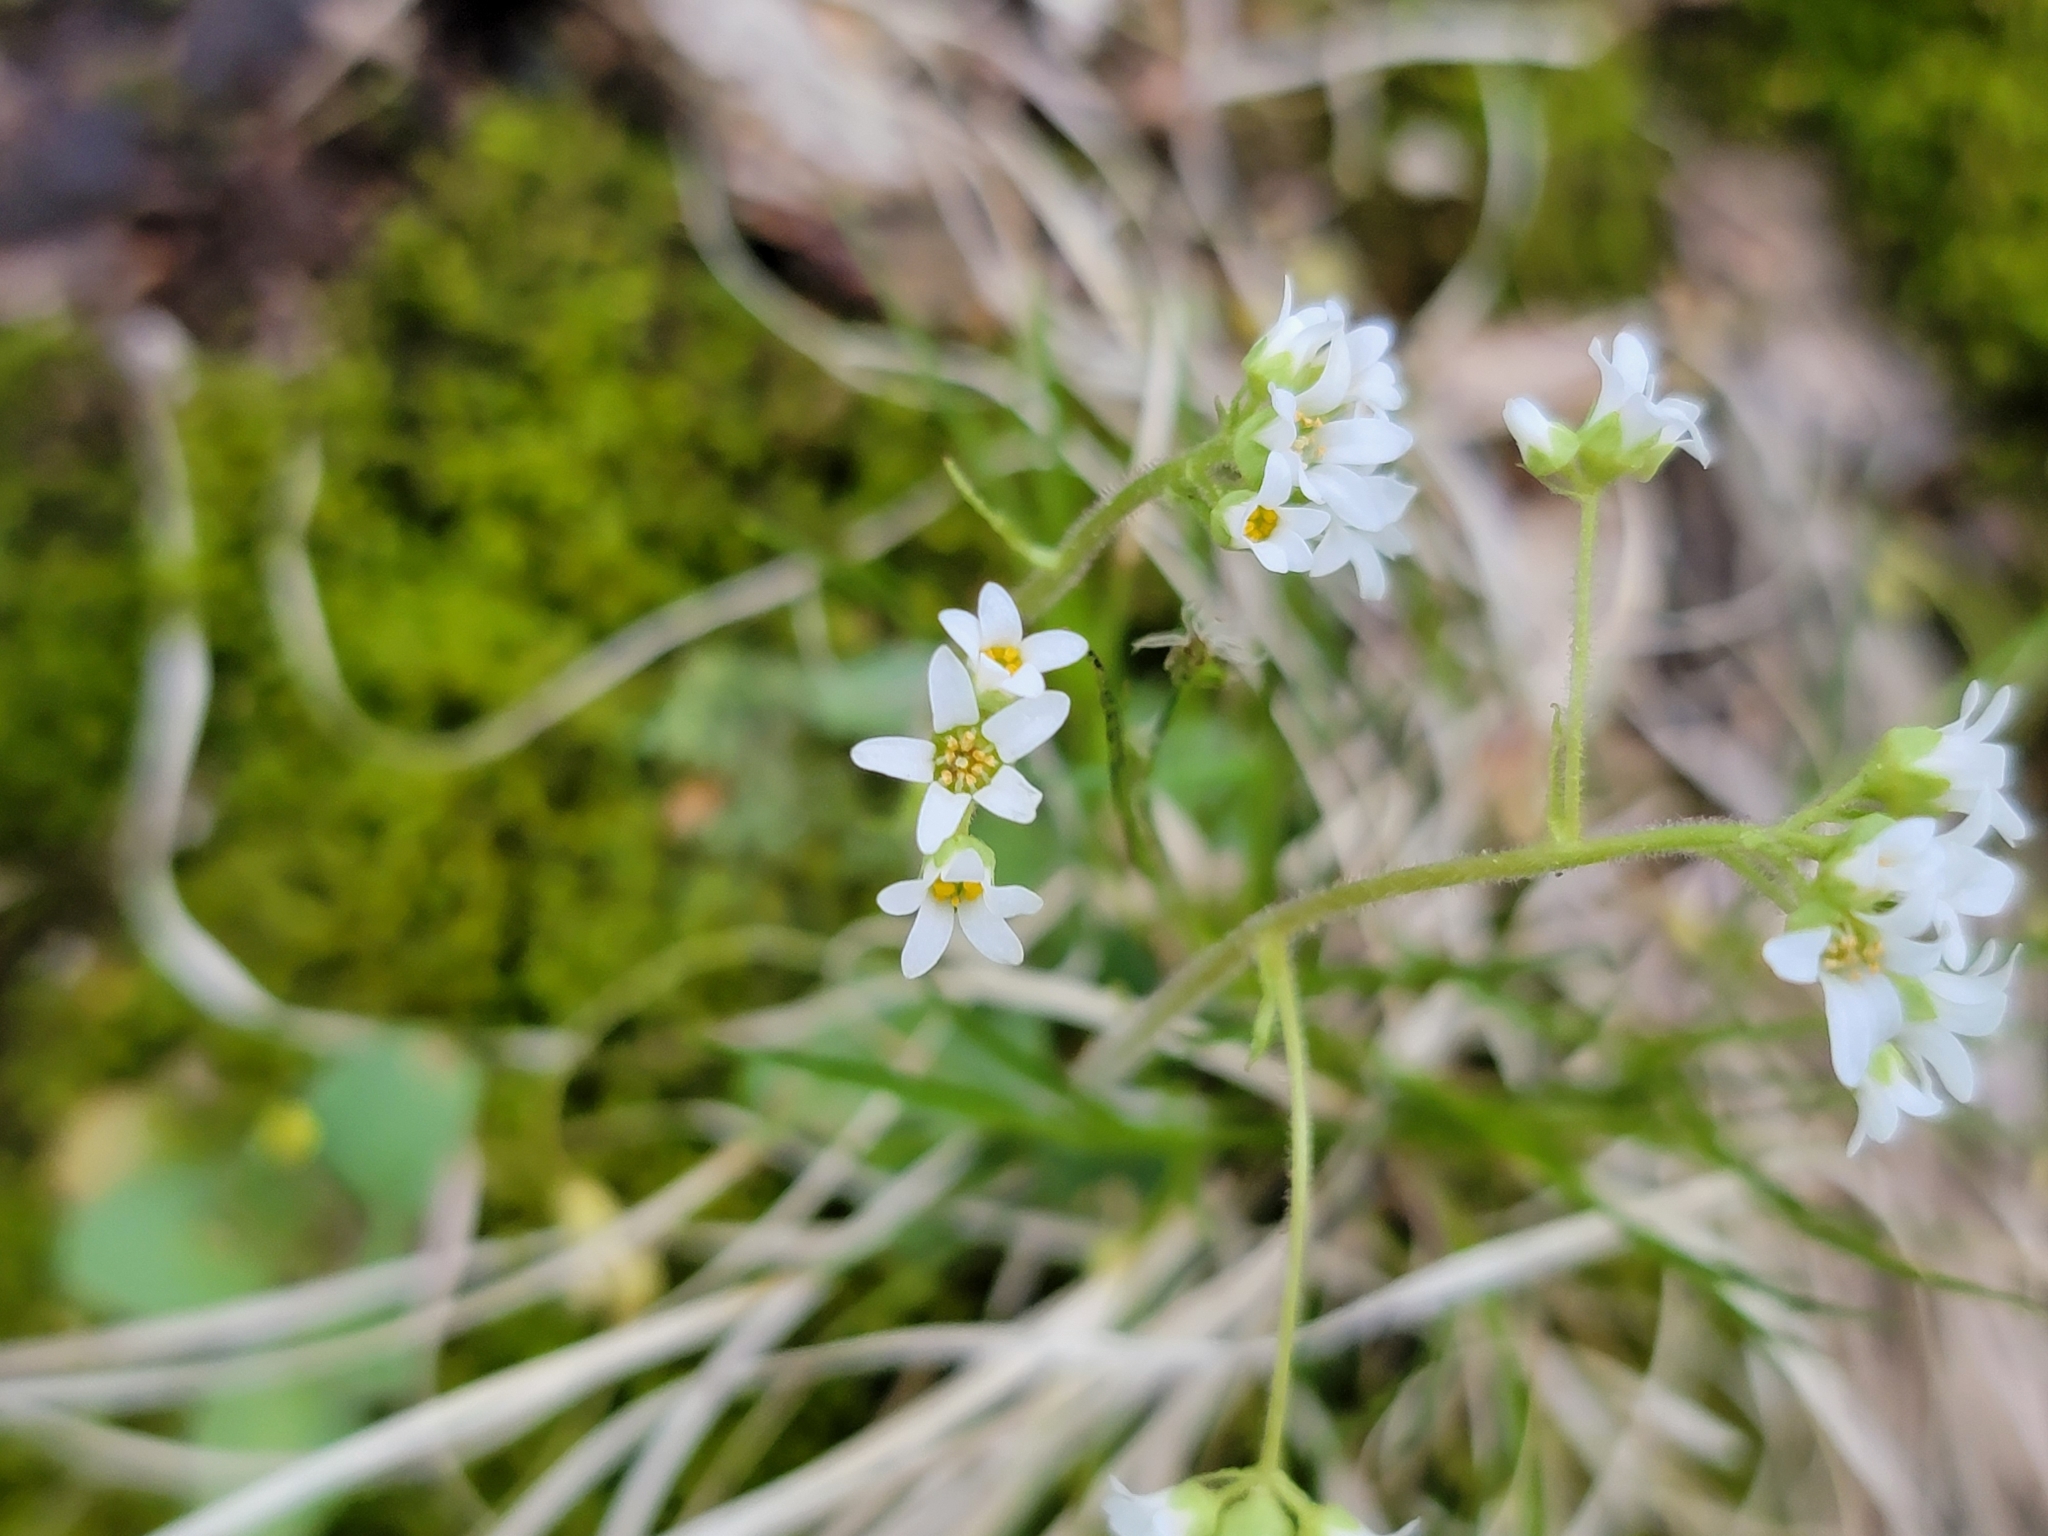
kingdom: Plantae
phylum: Tracheophyta
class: Magnoliopsida
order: Saxifragales
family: Saxifragaceae
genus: Micranthes
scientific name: Micranthes virginiensis
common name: Early saxifrage
